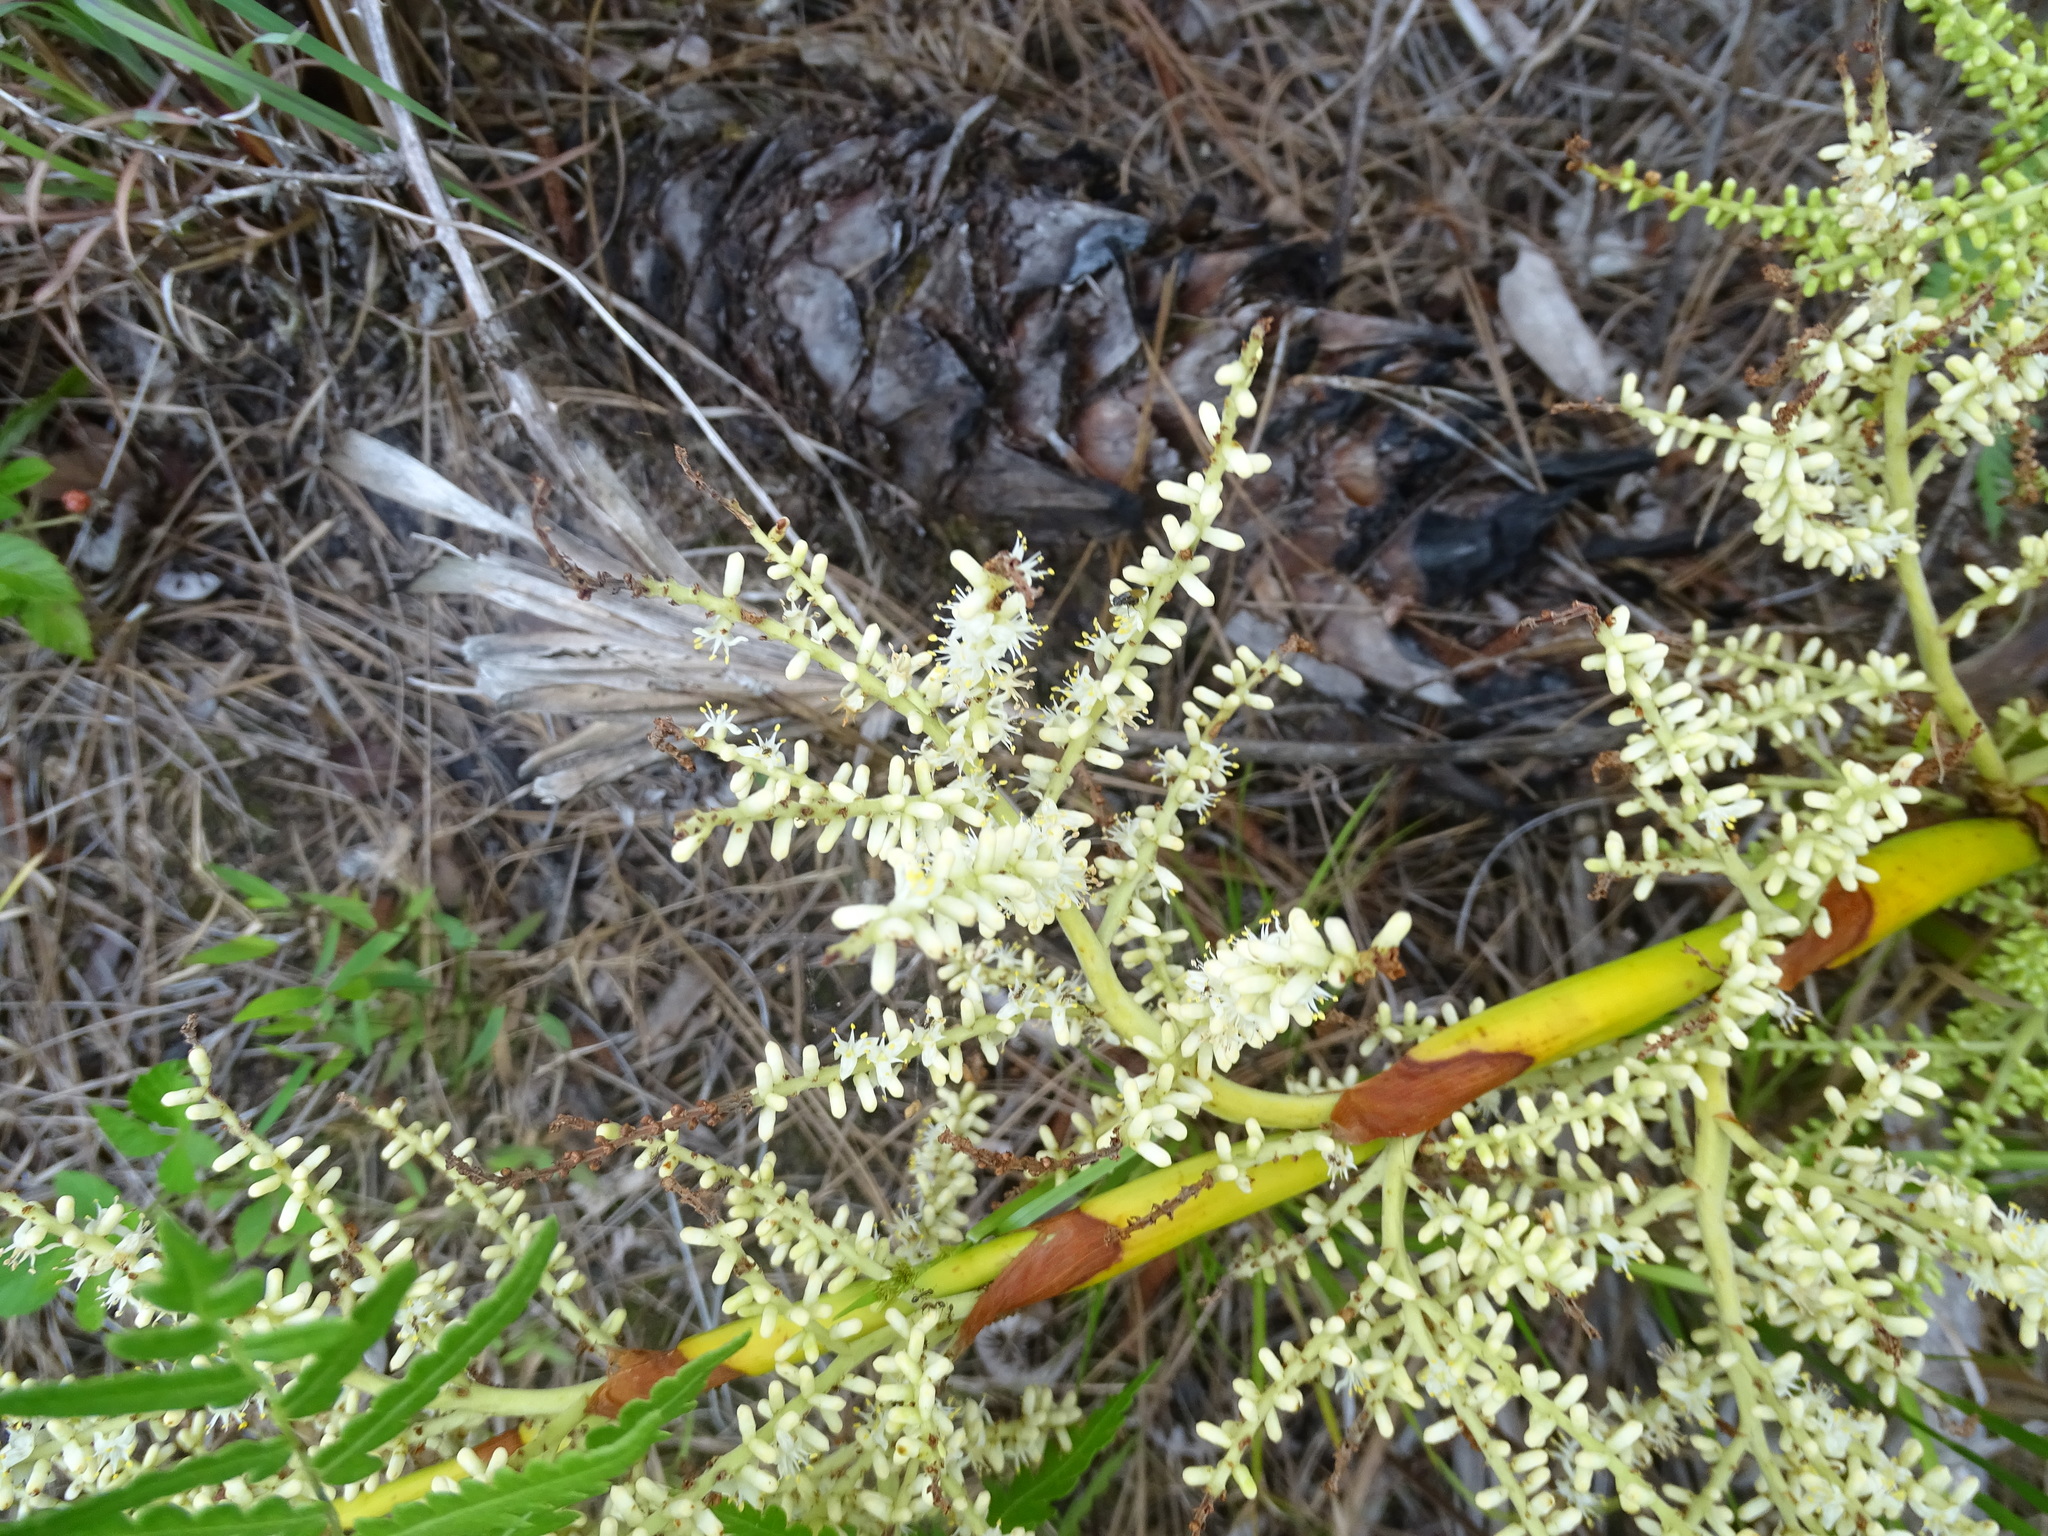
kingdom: Plantae
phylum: Tracheophyta
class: Liliopsida
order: Arecales
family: Arecaceae
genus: Serenoa
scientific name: Serenoa repens
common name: Saw-palmetto
